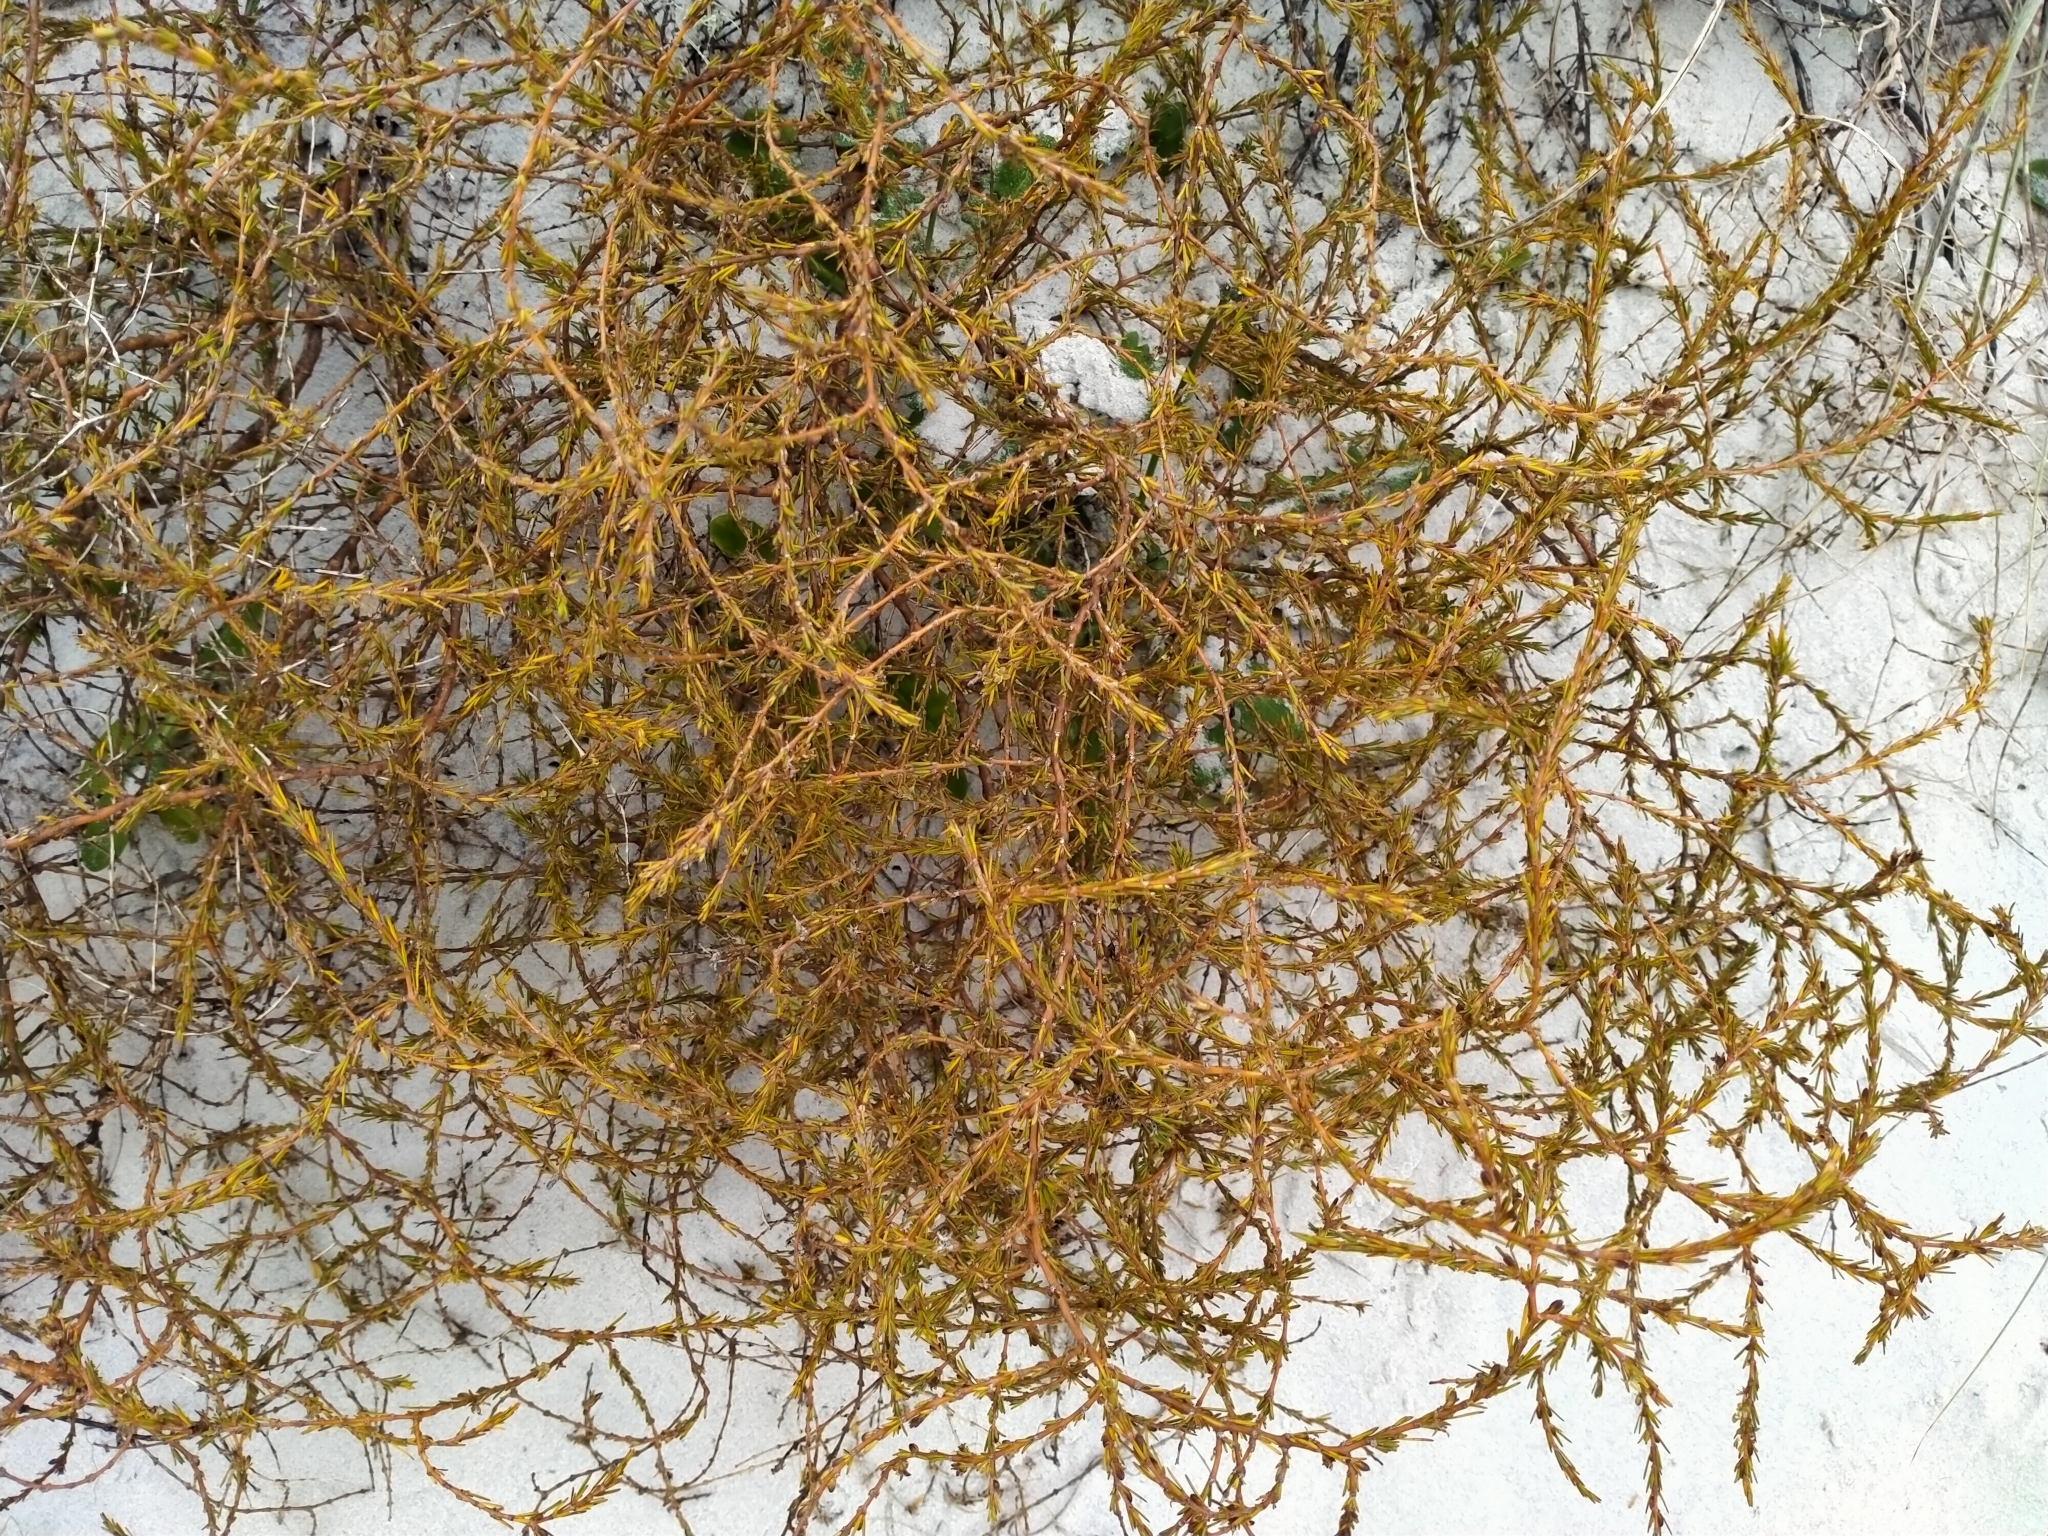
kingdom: Plantae
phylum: Tracheophyta
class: Magnoliopsida
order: Gentianales
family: Rubiaceae
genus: Coprosma
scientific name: Coprosma acerosa
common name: Sand coprosma
